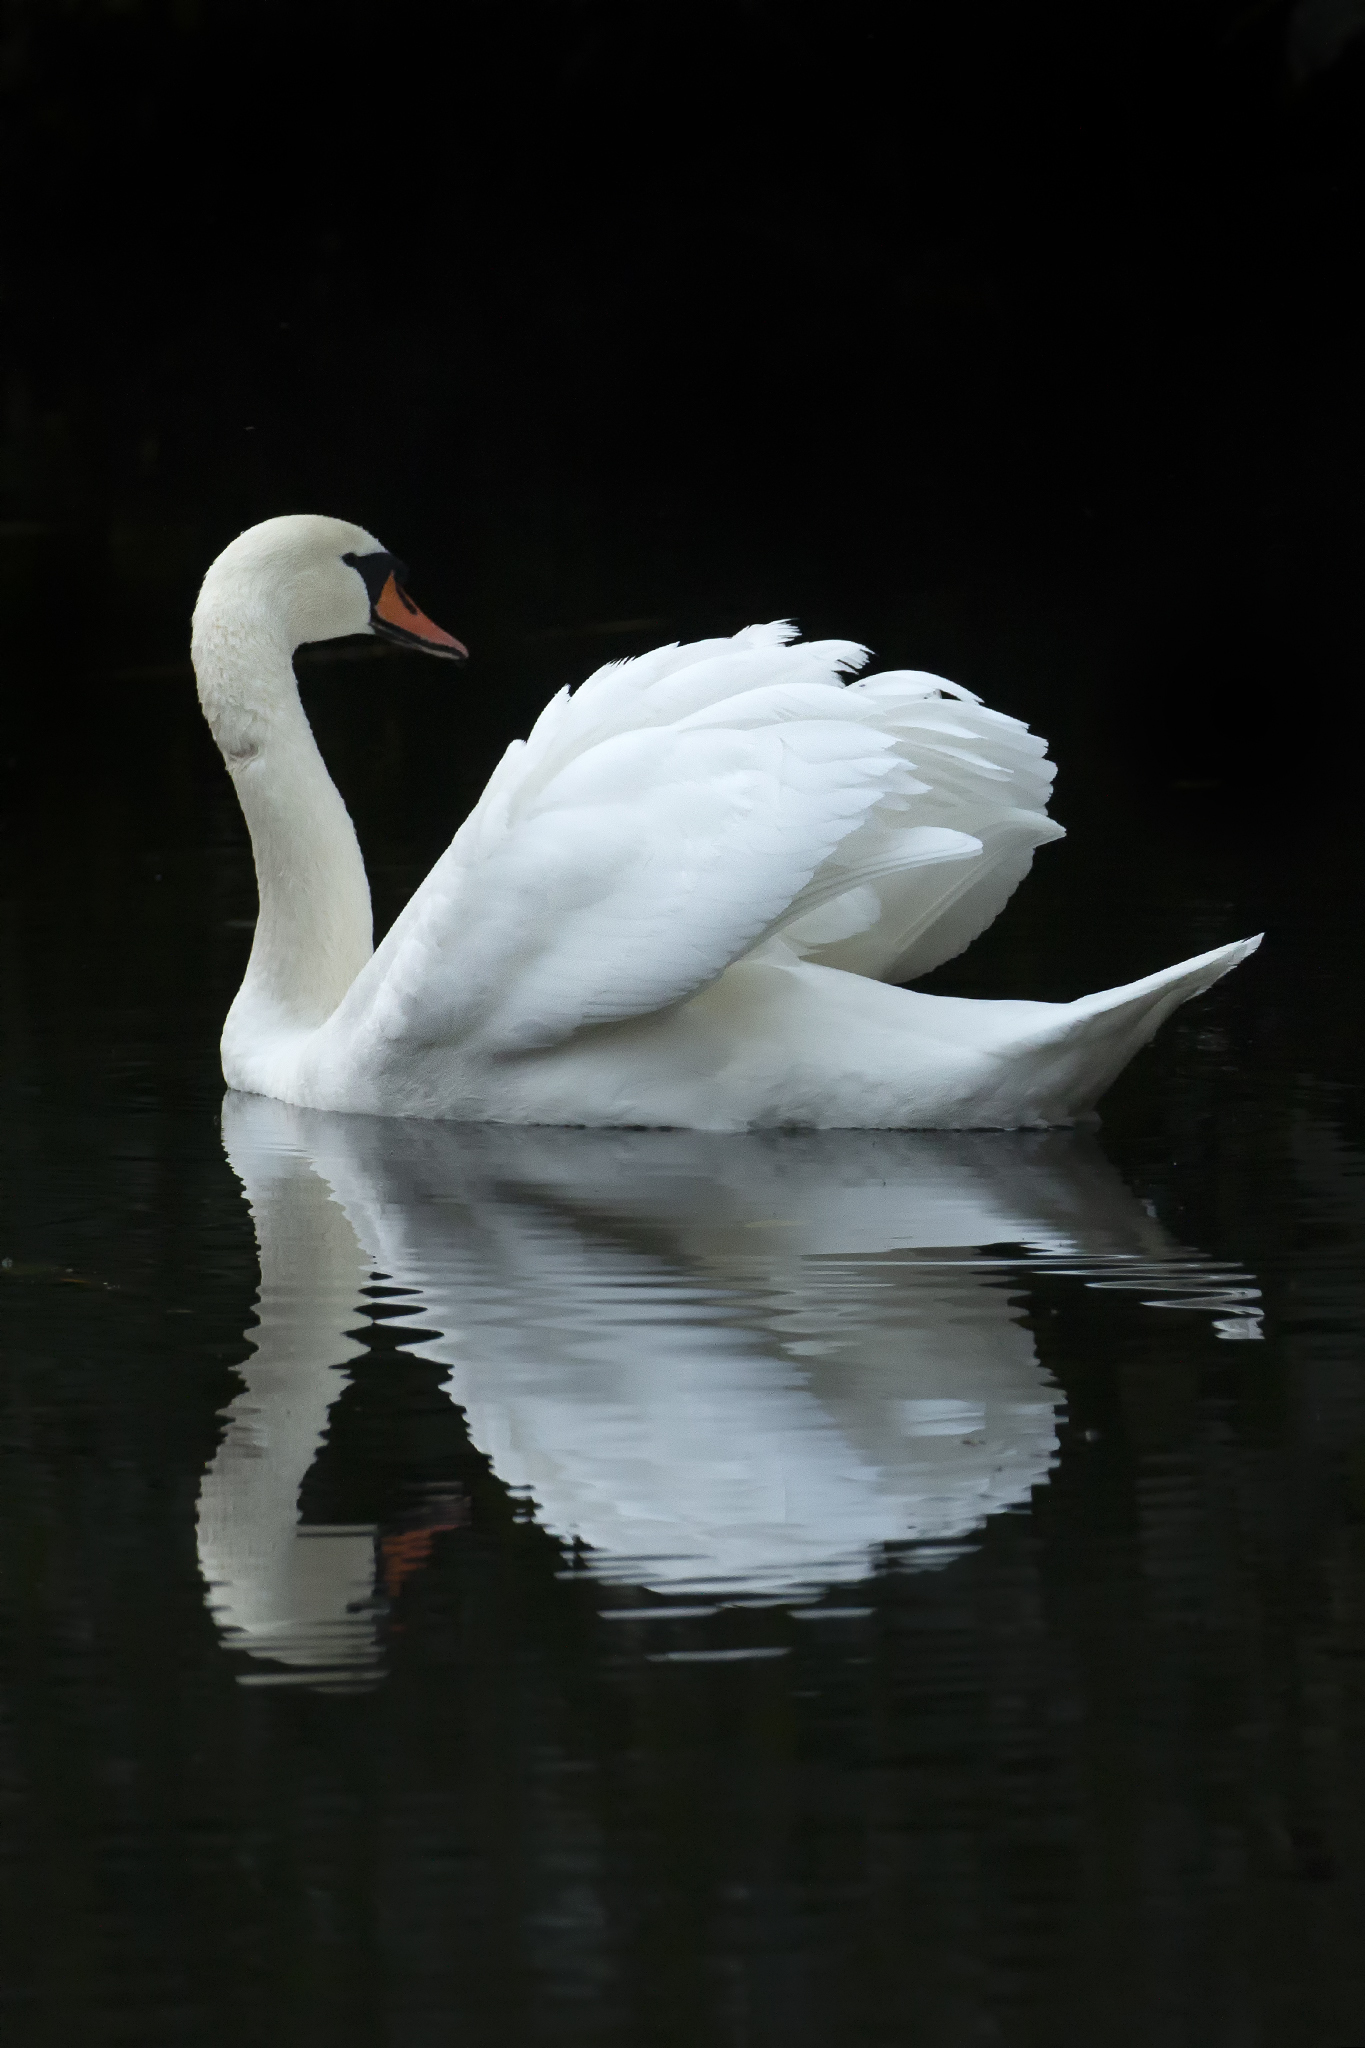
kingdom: Animalia
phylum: Chordata
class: Aves
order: Anseriformes
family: Anatidae
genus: Cygnus
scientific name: Cygnus olor
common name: Mute swan
